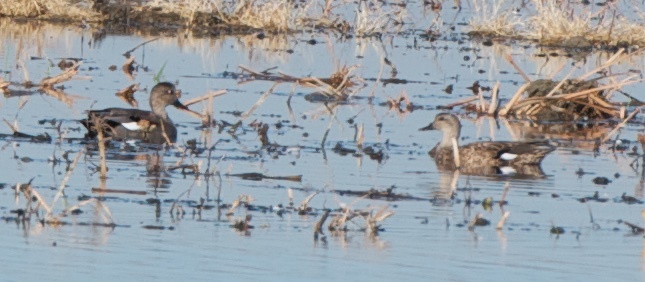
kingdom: Animalia
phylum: Chordata
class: Aves
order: Anseriformes
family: Anatidae
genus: Mareca
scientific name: Mareca strepera
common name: Gadwall
